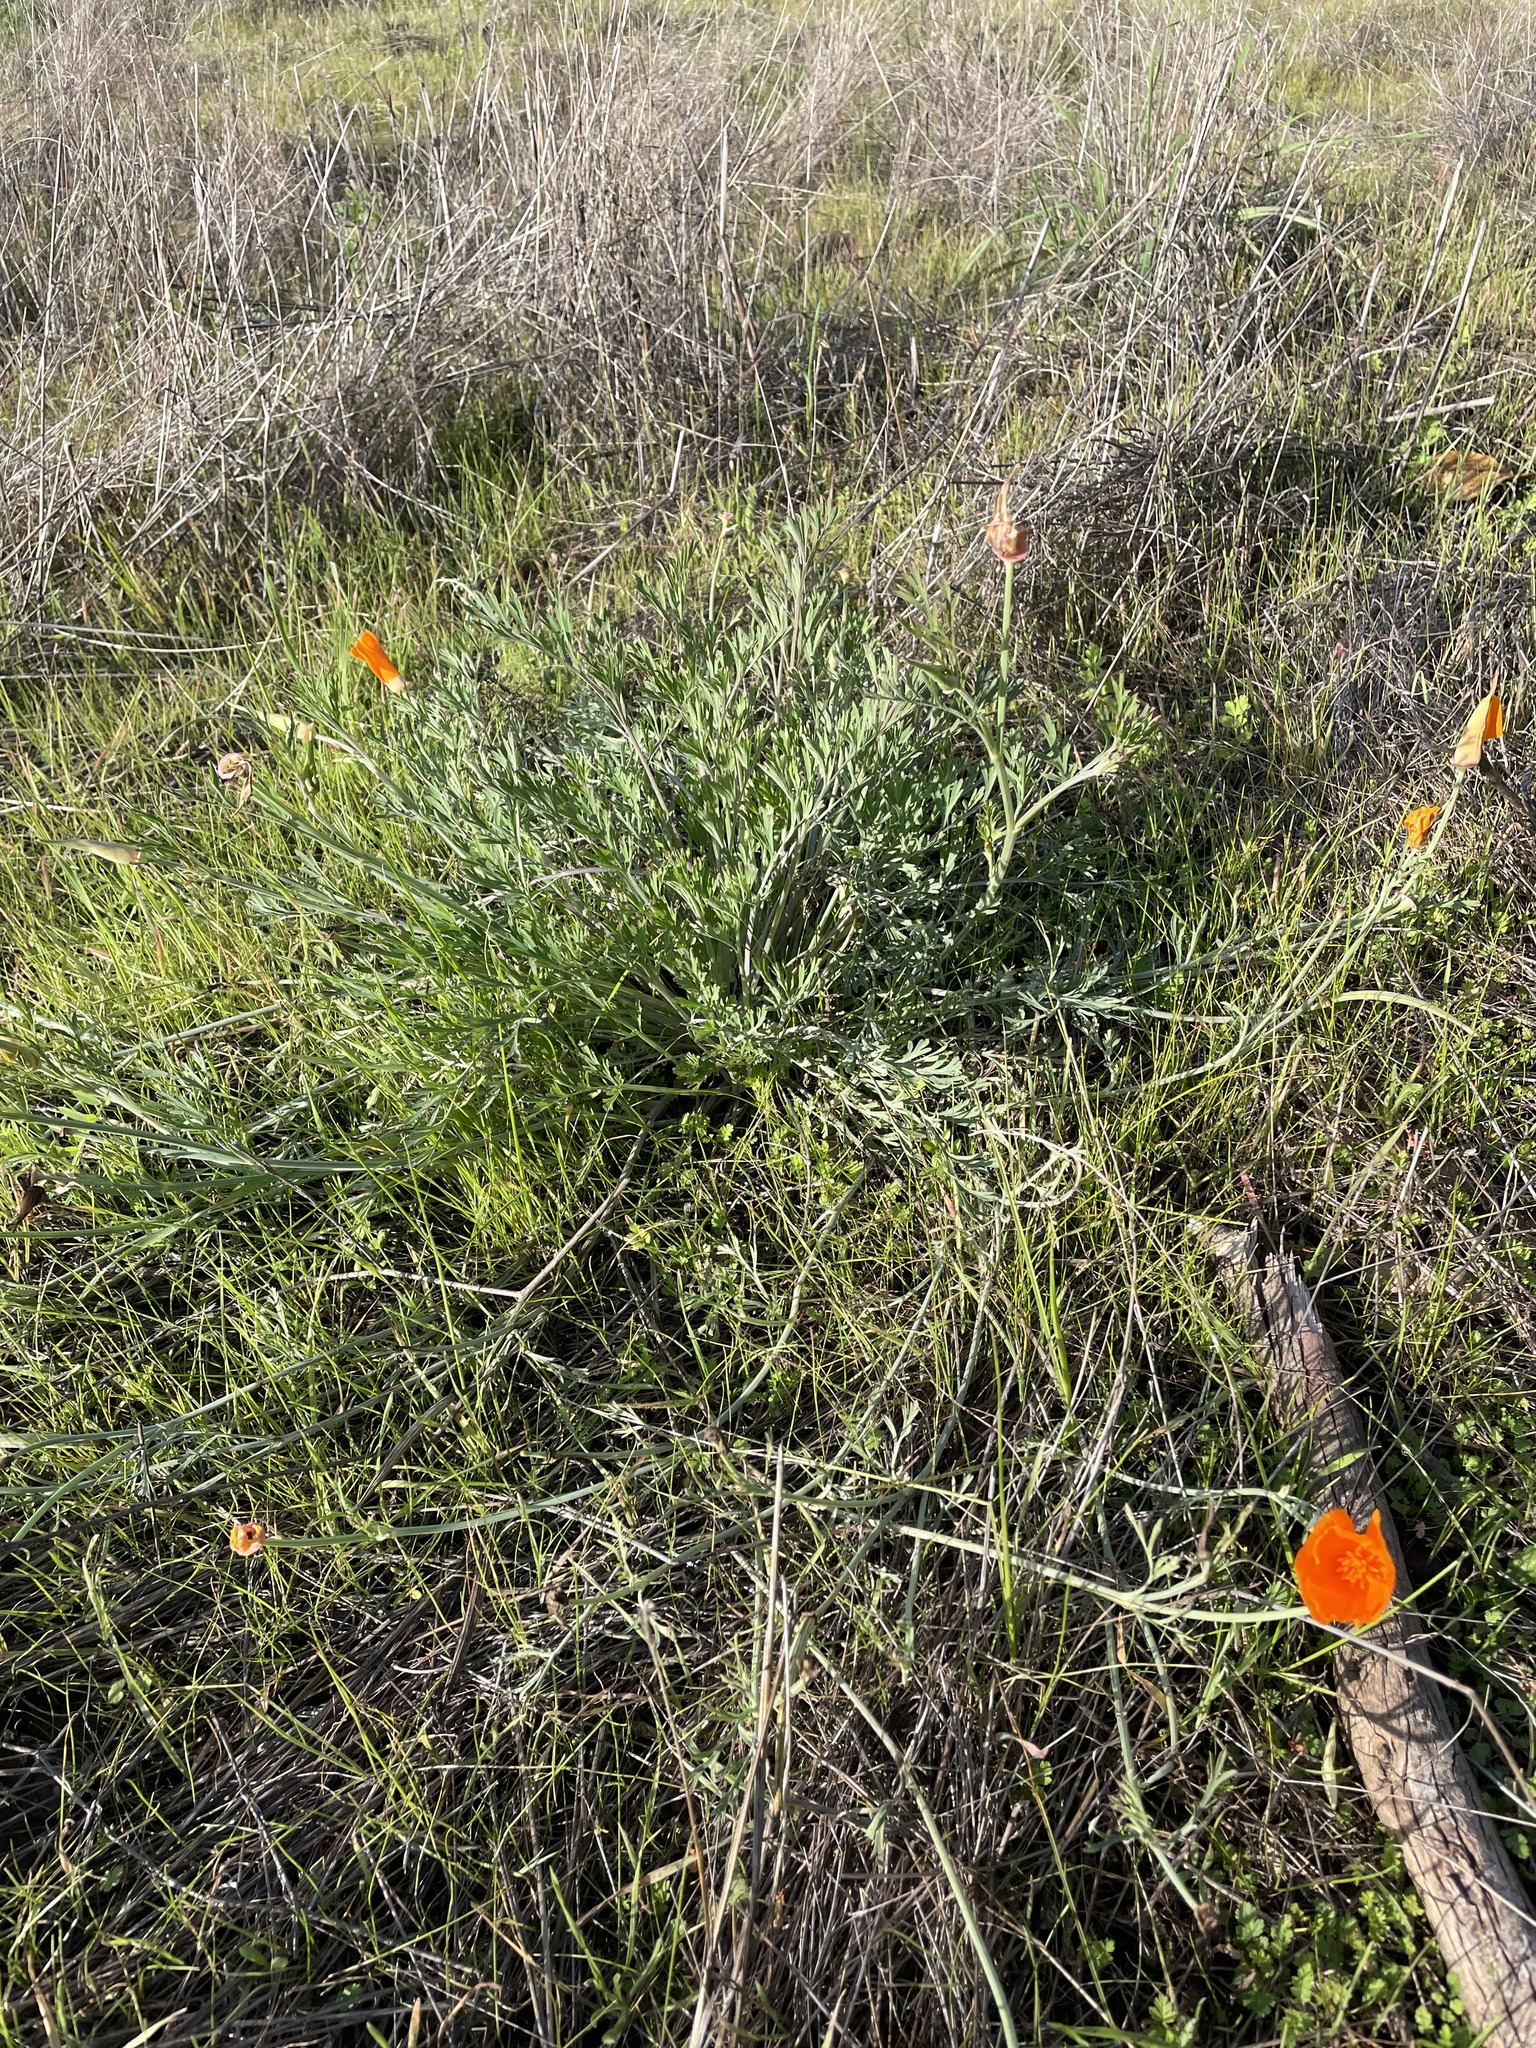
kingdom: Plantae
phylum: Tracheophyta
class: Magnoliopsida
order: Ranunculales
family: Papaveraceae
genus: Eschscholzia
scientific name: Eschscholzia californica
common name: California poppy
